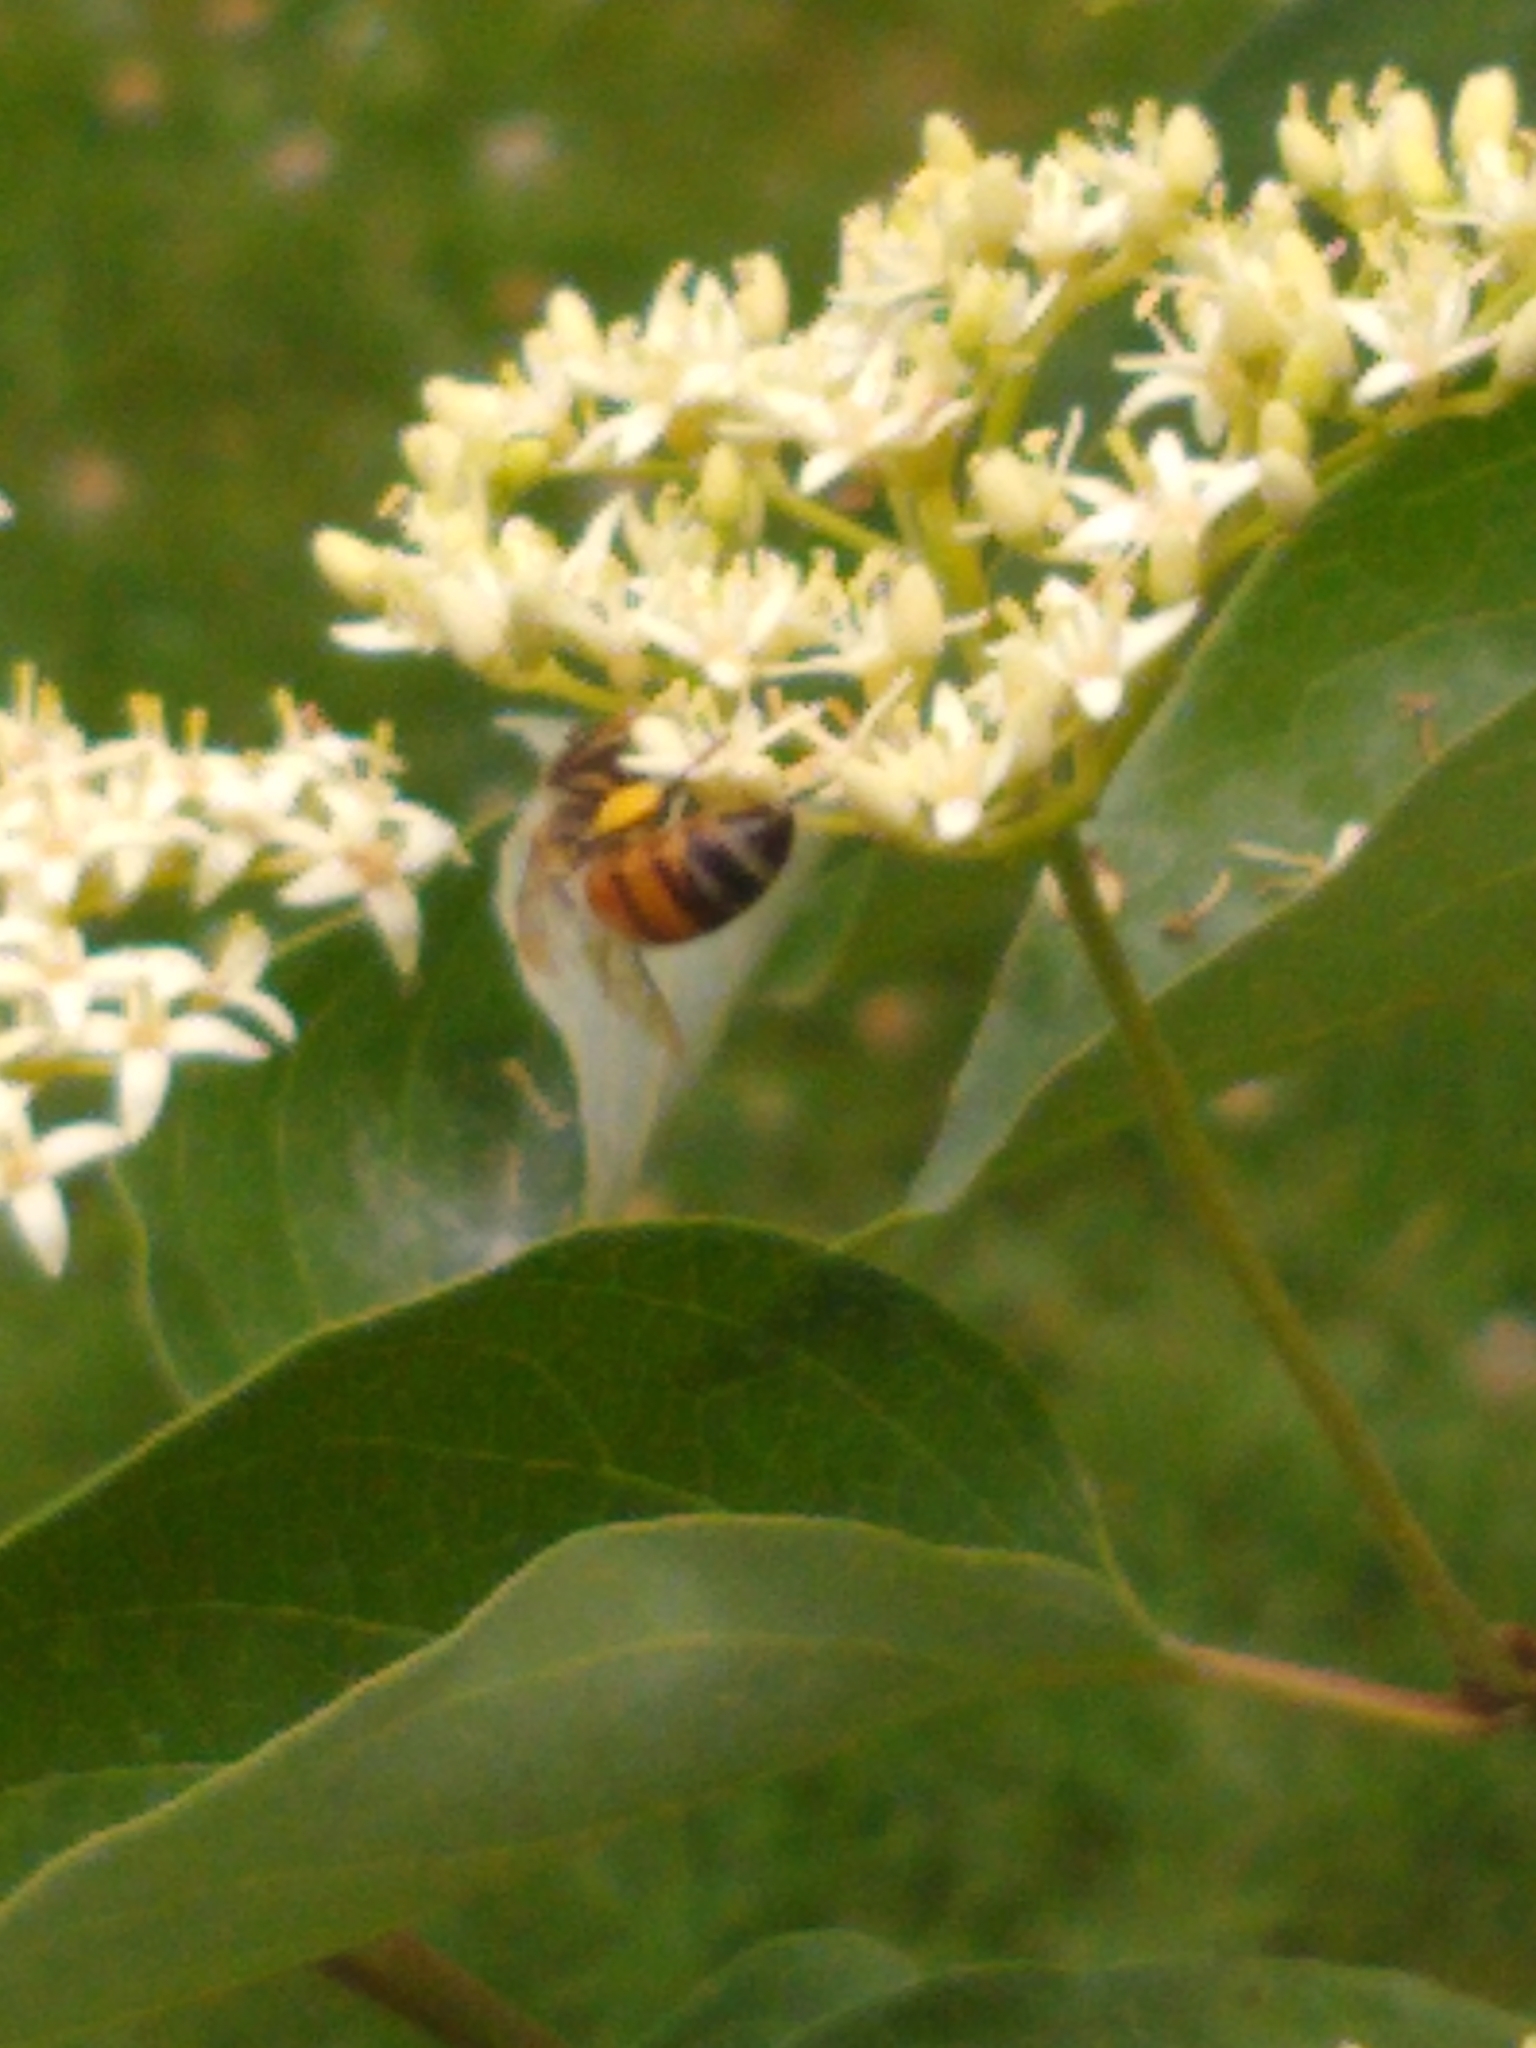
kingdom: Animalia
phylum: Arthropoda
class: Insecta
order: Hymenoptera
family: Apidae
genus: Apis
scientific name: Apis mellifera
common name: Honey bee
